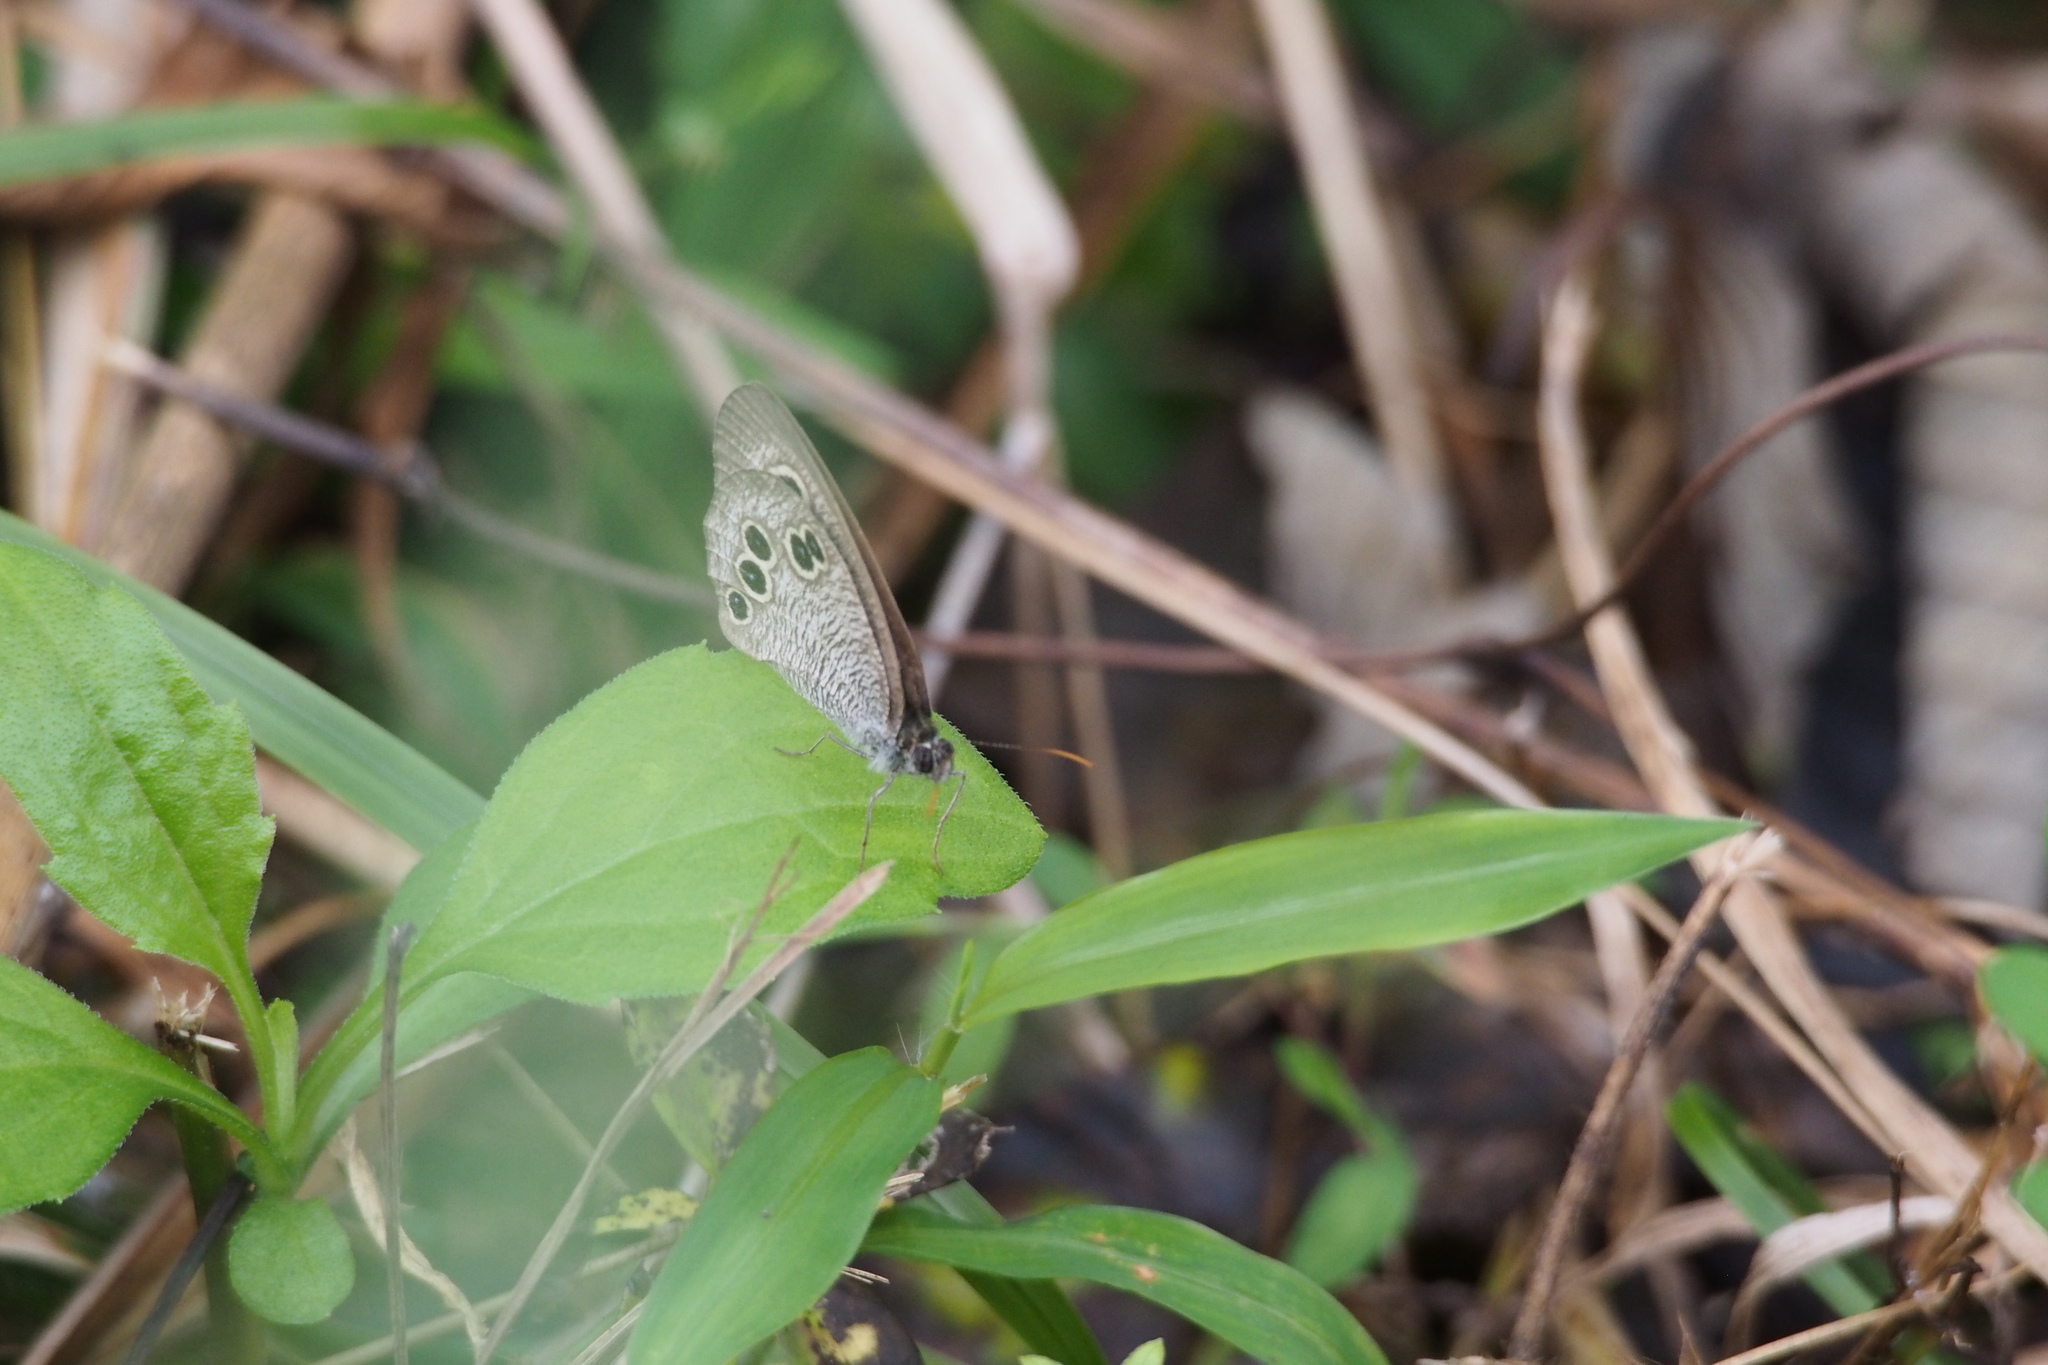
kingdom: Animalia
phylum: Arthropoda
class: Insecta
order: Lepidoptera
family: Nymphalidae
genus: Ypthima
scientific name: Ypthima argus
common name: Common fivering
